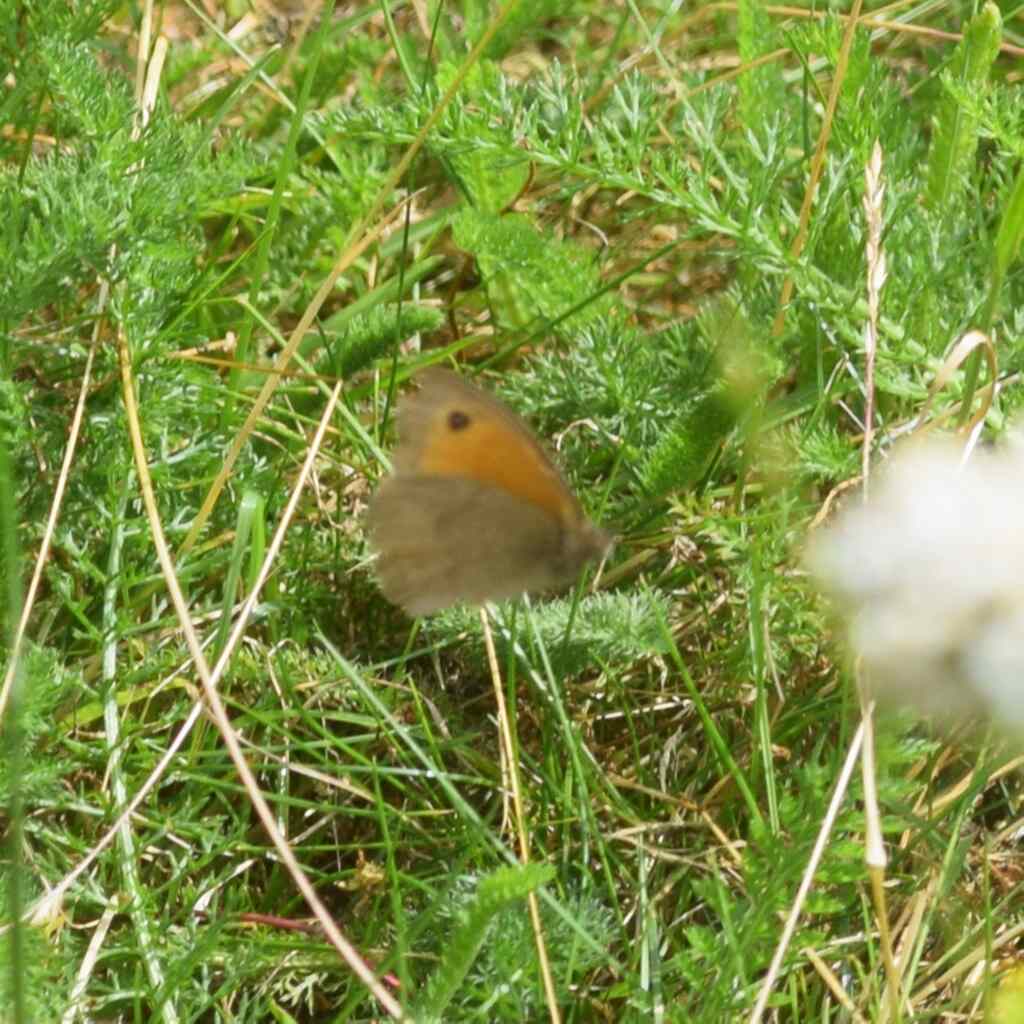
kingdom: Animalia
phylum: Arthropoda
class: Insecta
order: Lepidoptera
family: Nymphalidae
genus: Maniola
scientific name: Maniola jurtina
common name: Meadow brown
